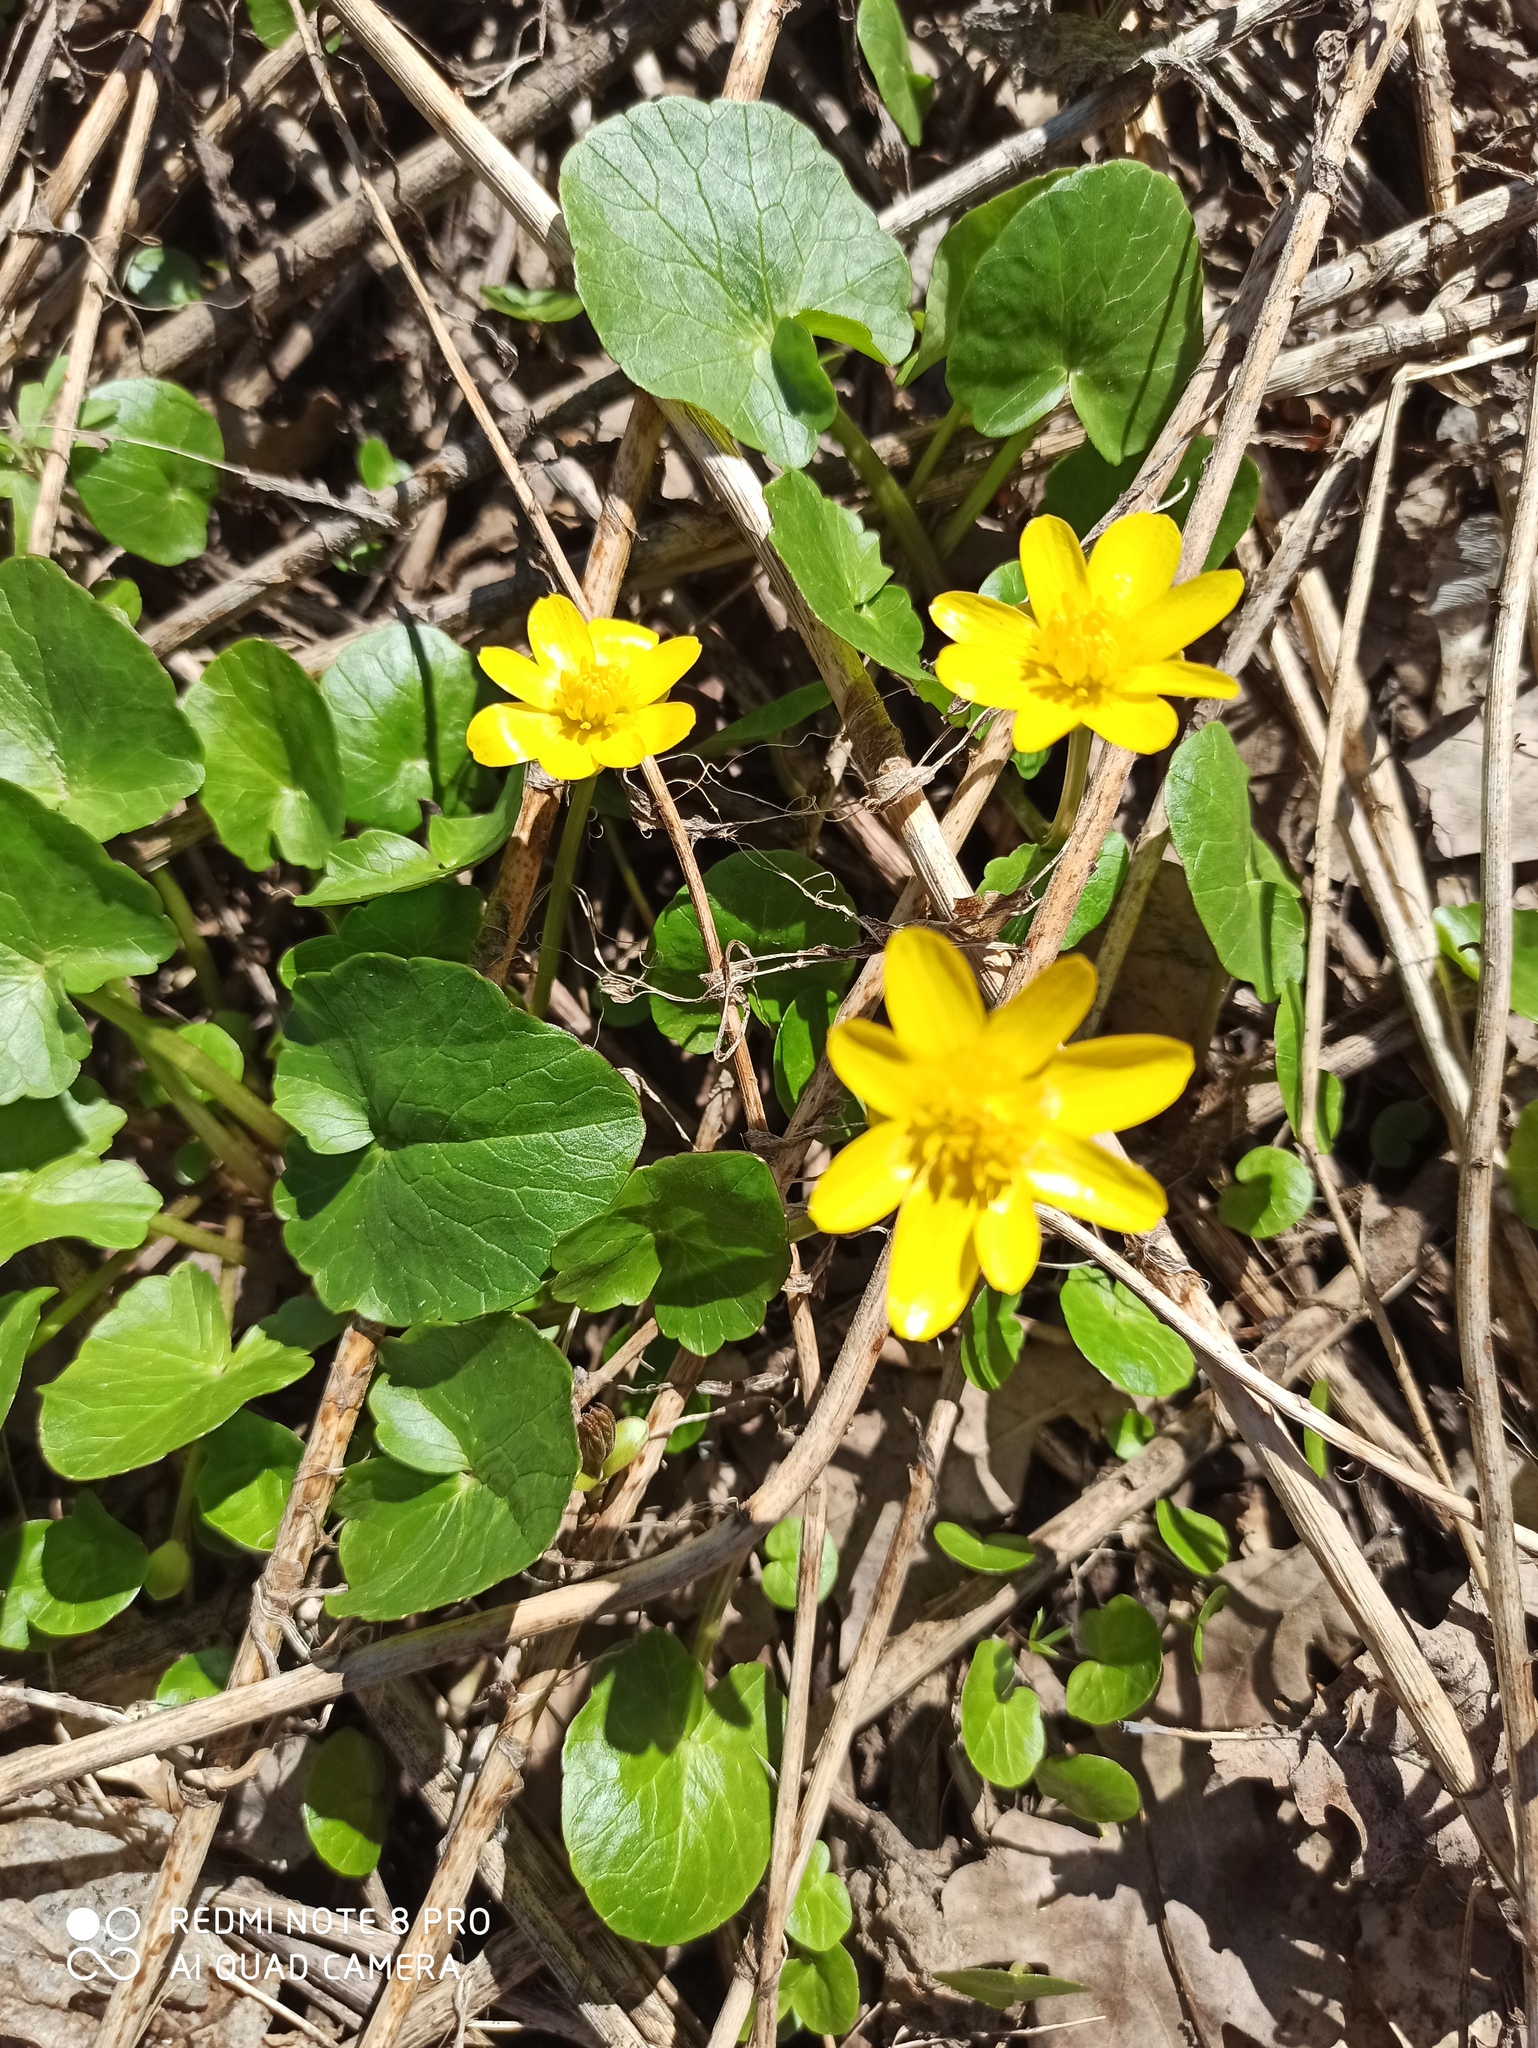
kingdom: Plantae
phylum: Tracheophyta
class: Magnoliopsida
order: Ranunculales
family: Ranunculaceae
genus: Ficaria
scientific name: Ficaria verna
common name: Lesser celandine
